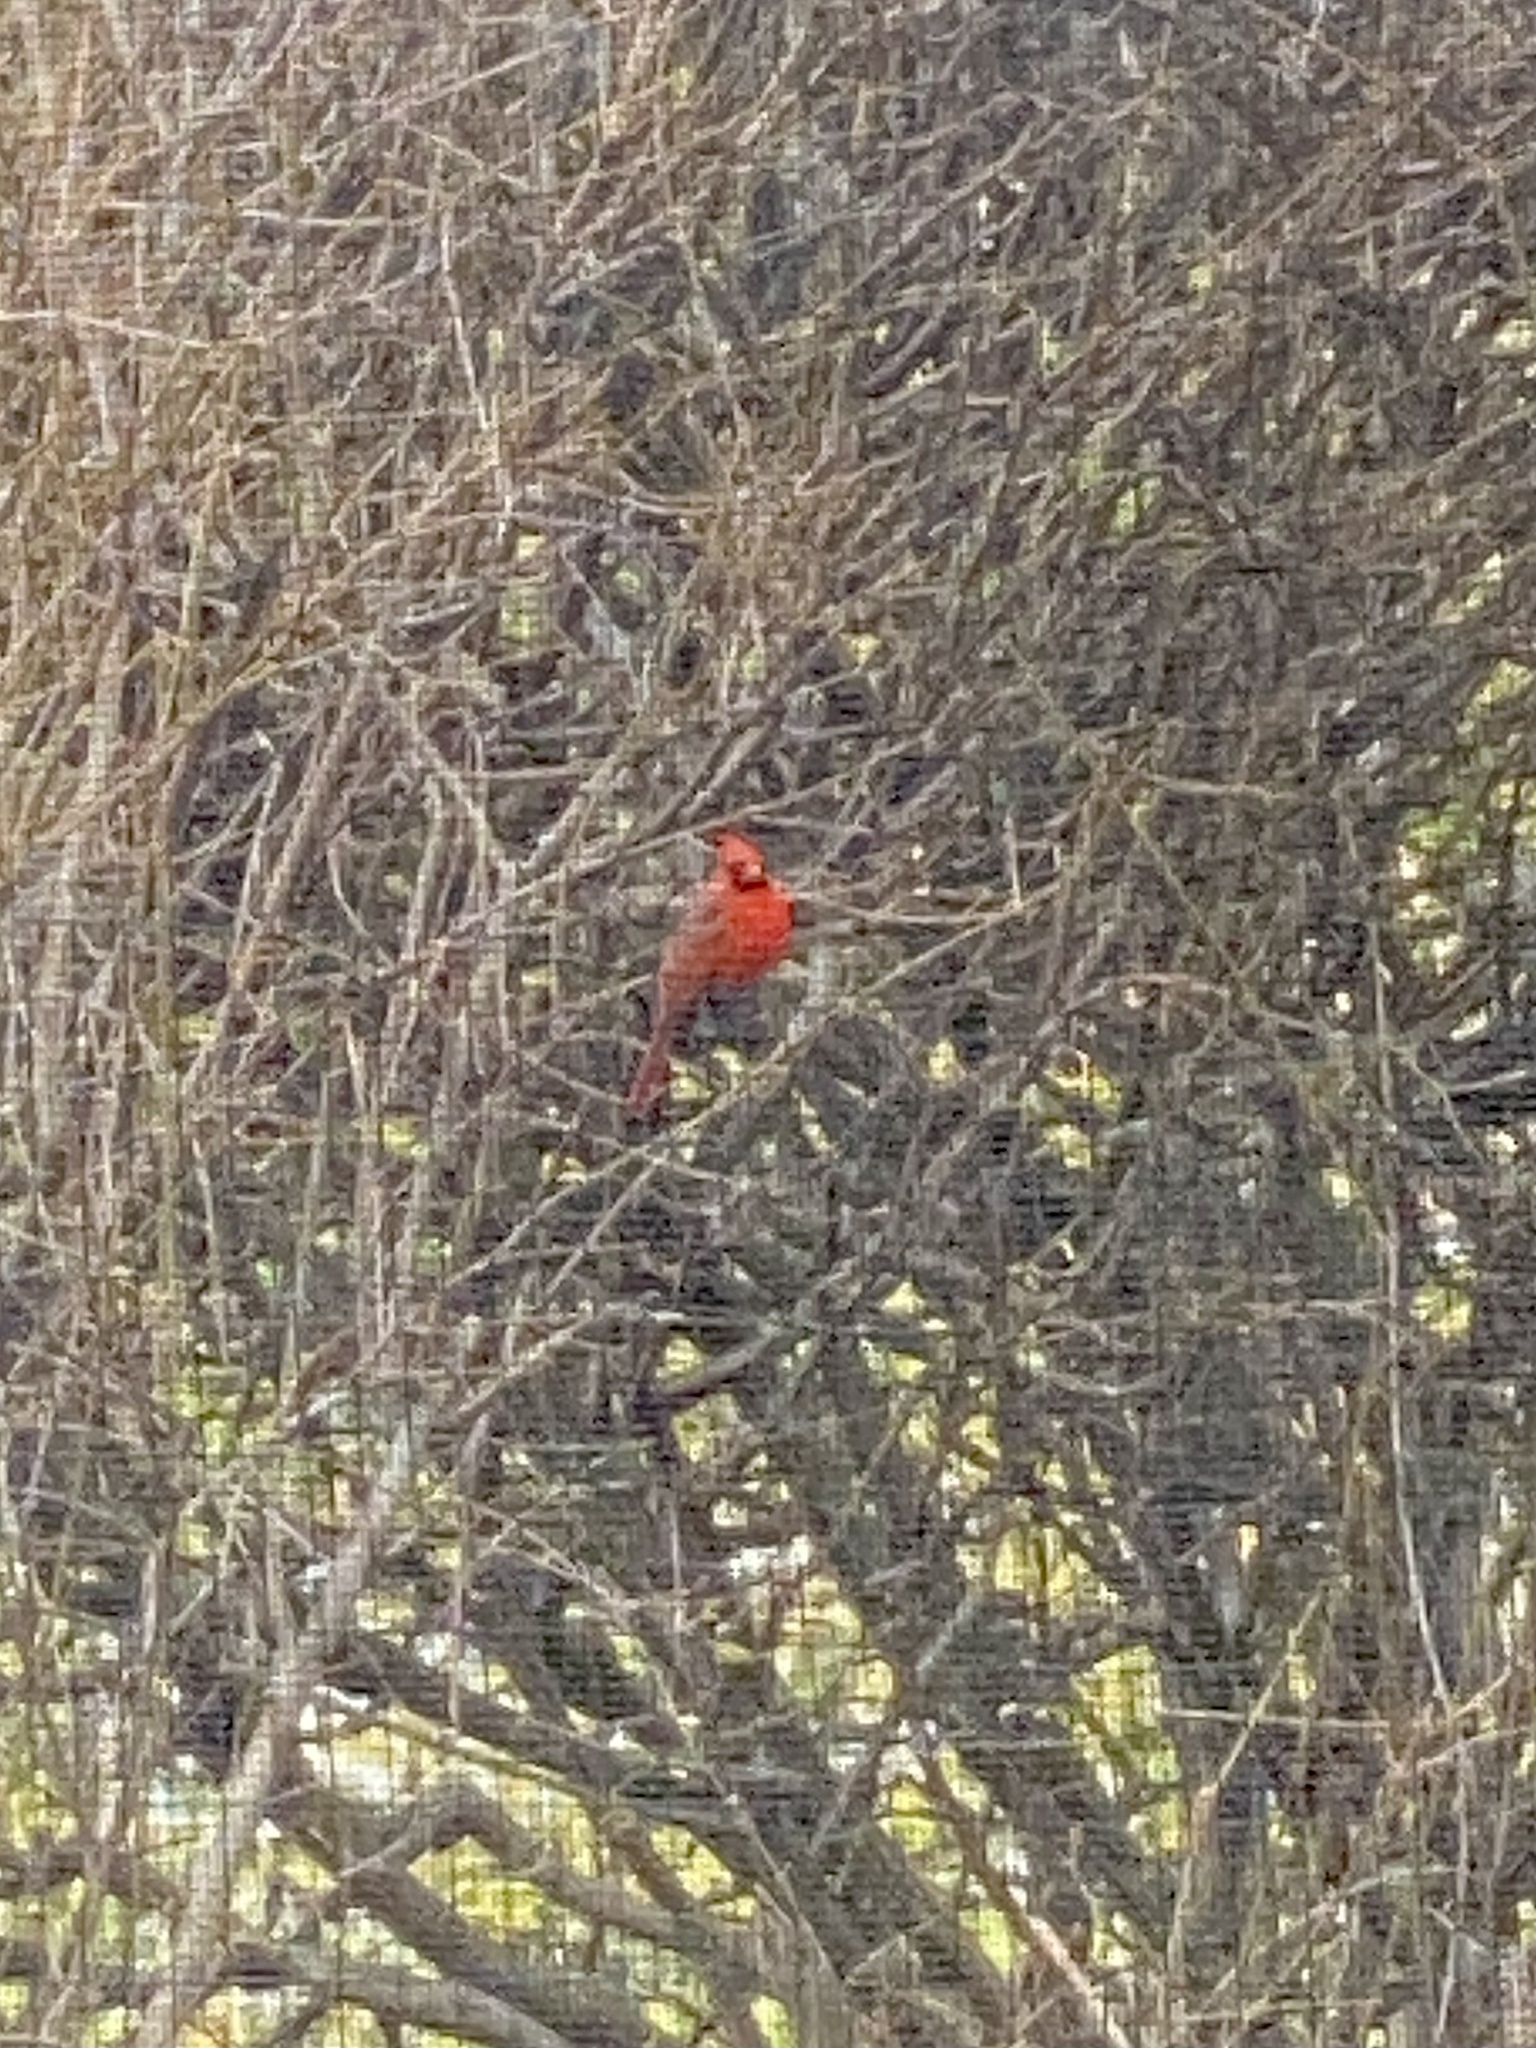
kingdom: Animalia
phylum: Chordata
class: Aves
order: Passeriformes
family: Cardinalidae
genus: Cardinalis
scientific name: Cardinalis cardinalis
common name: Northern cardinal
